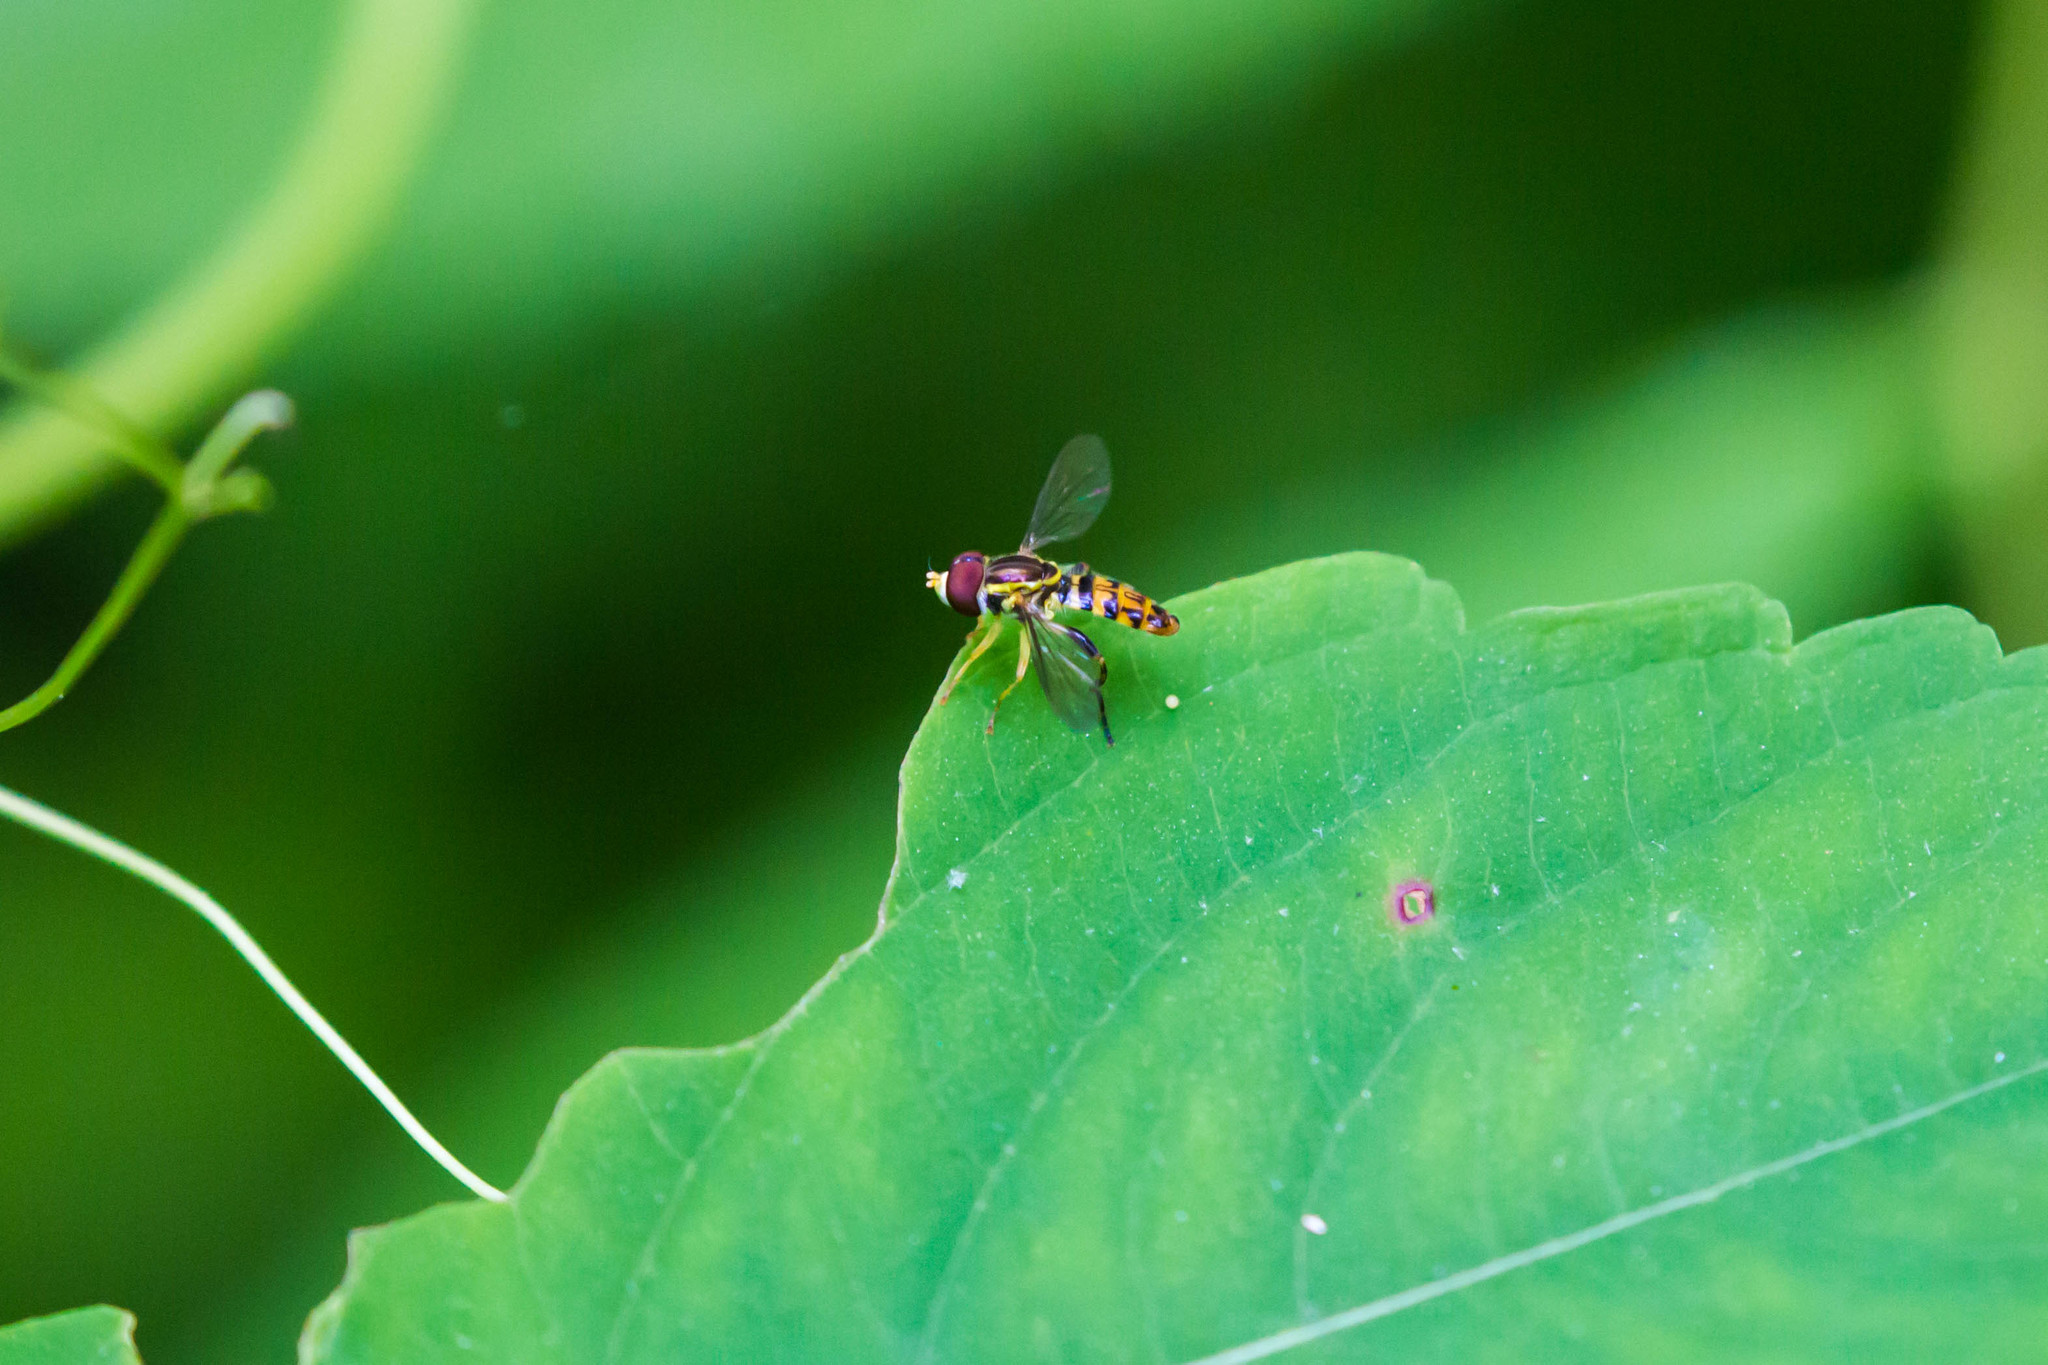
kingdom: Animalia
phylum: Arthropoda
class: Insecta
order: Diptera
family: Syrphidae
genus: Toxomerus
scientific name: Toxomerus geminatus
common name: Eastern calligrapher
